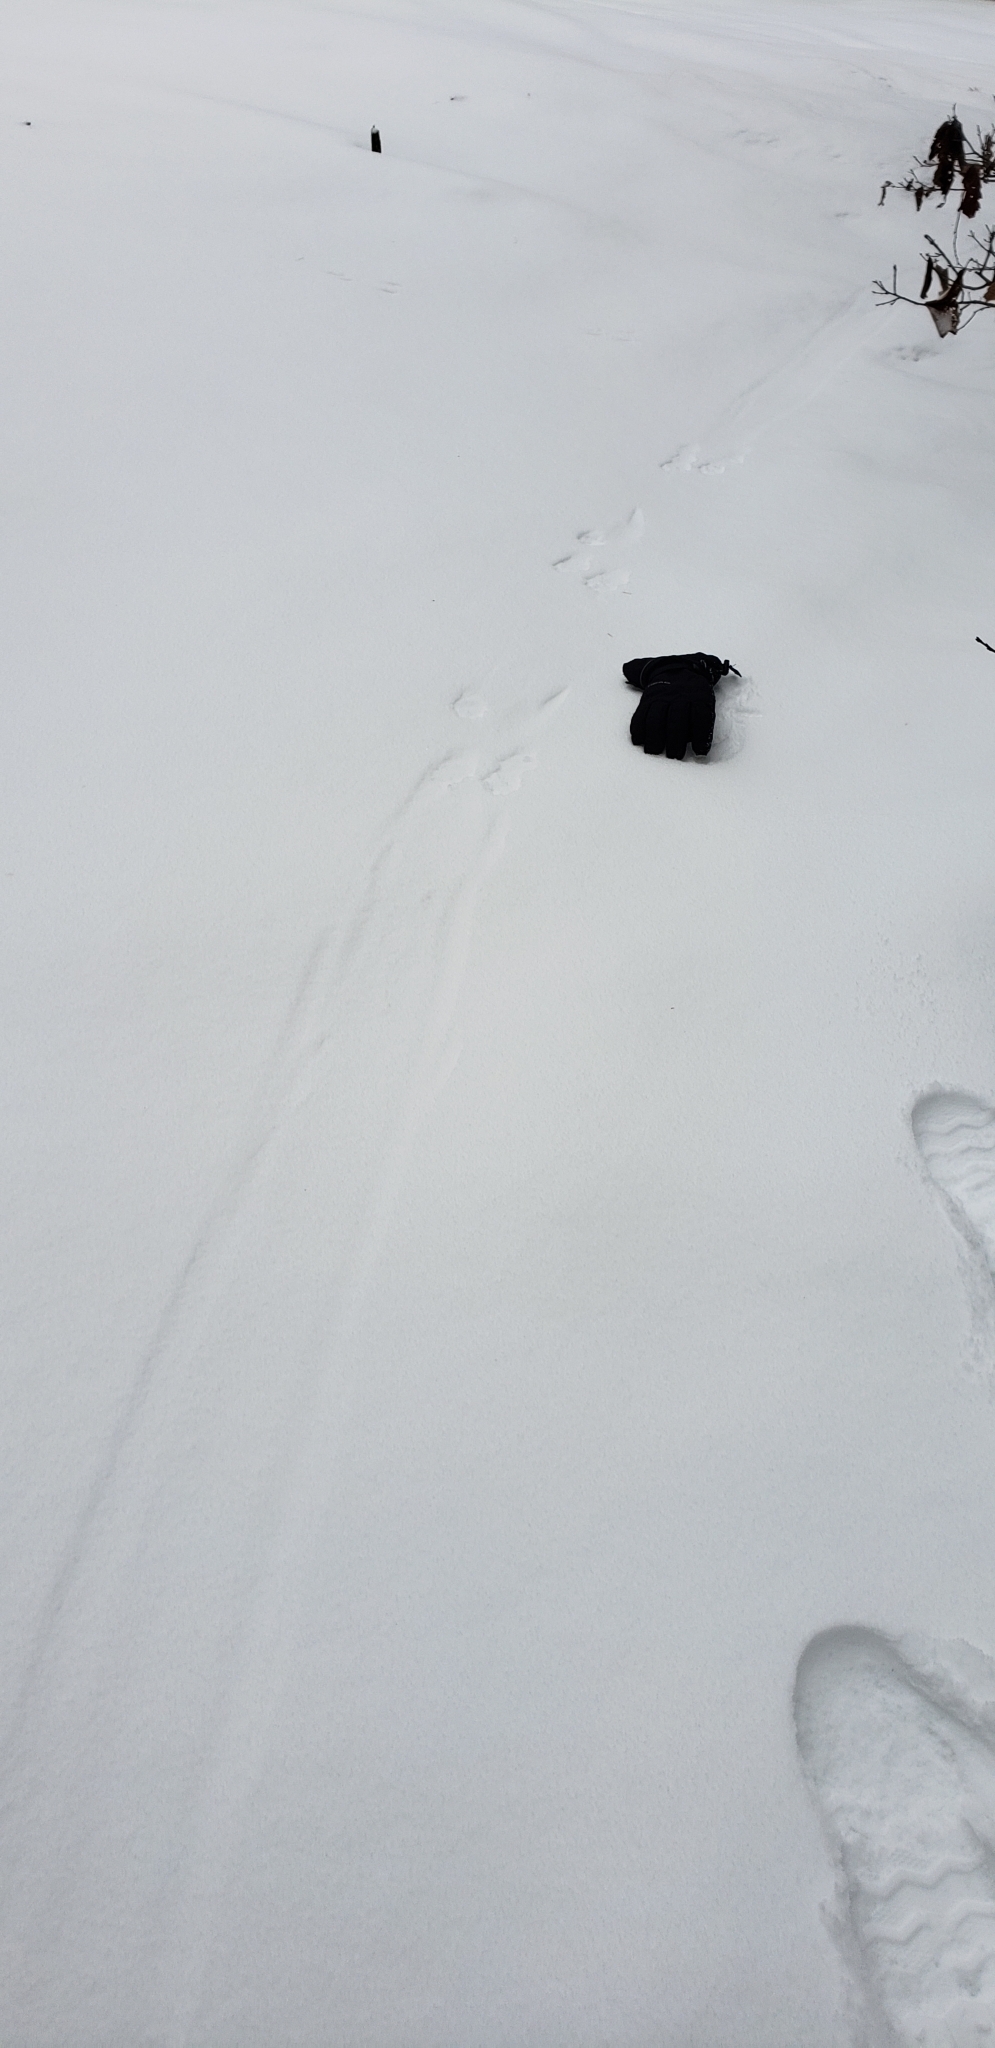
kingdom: Animalia
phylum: Chordata
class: Mammalia
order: Carnivora
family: Mustelidae
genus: Lontra
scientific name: Lontra canadensis
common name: North american river otter
